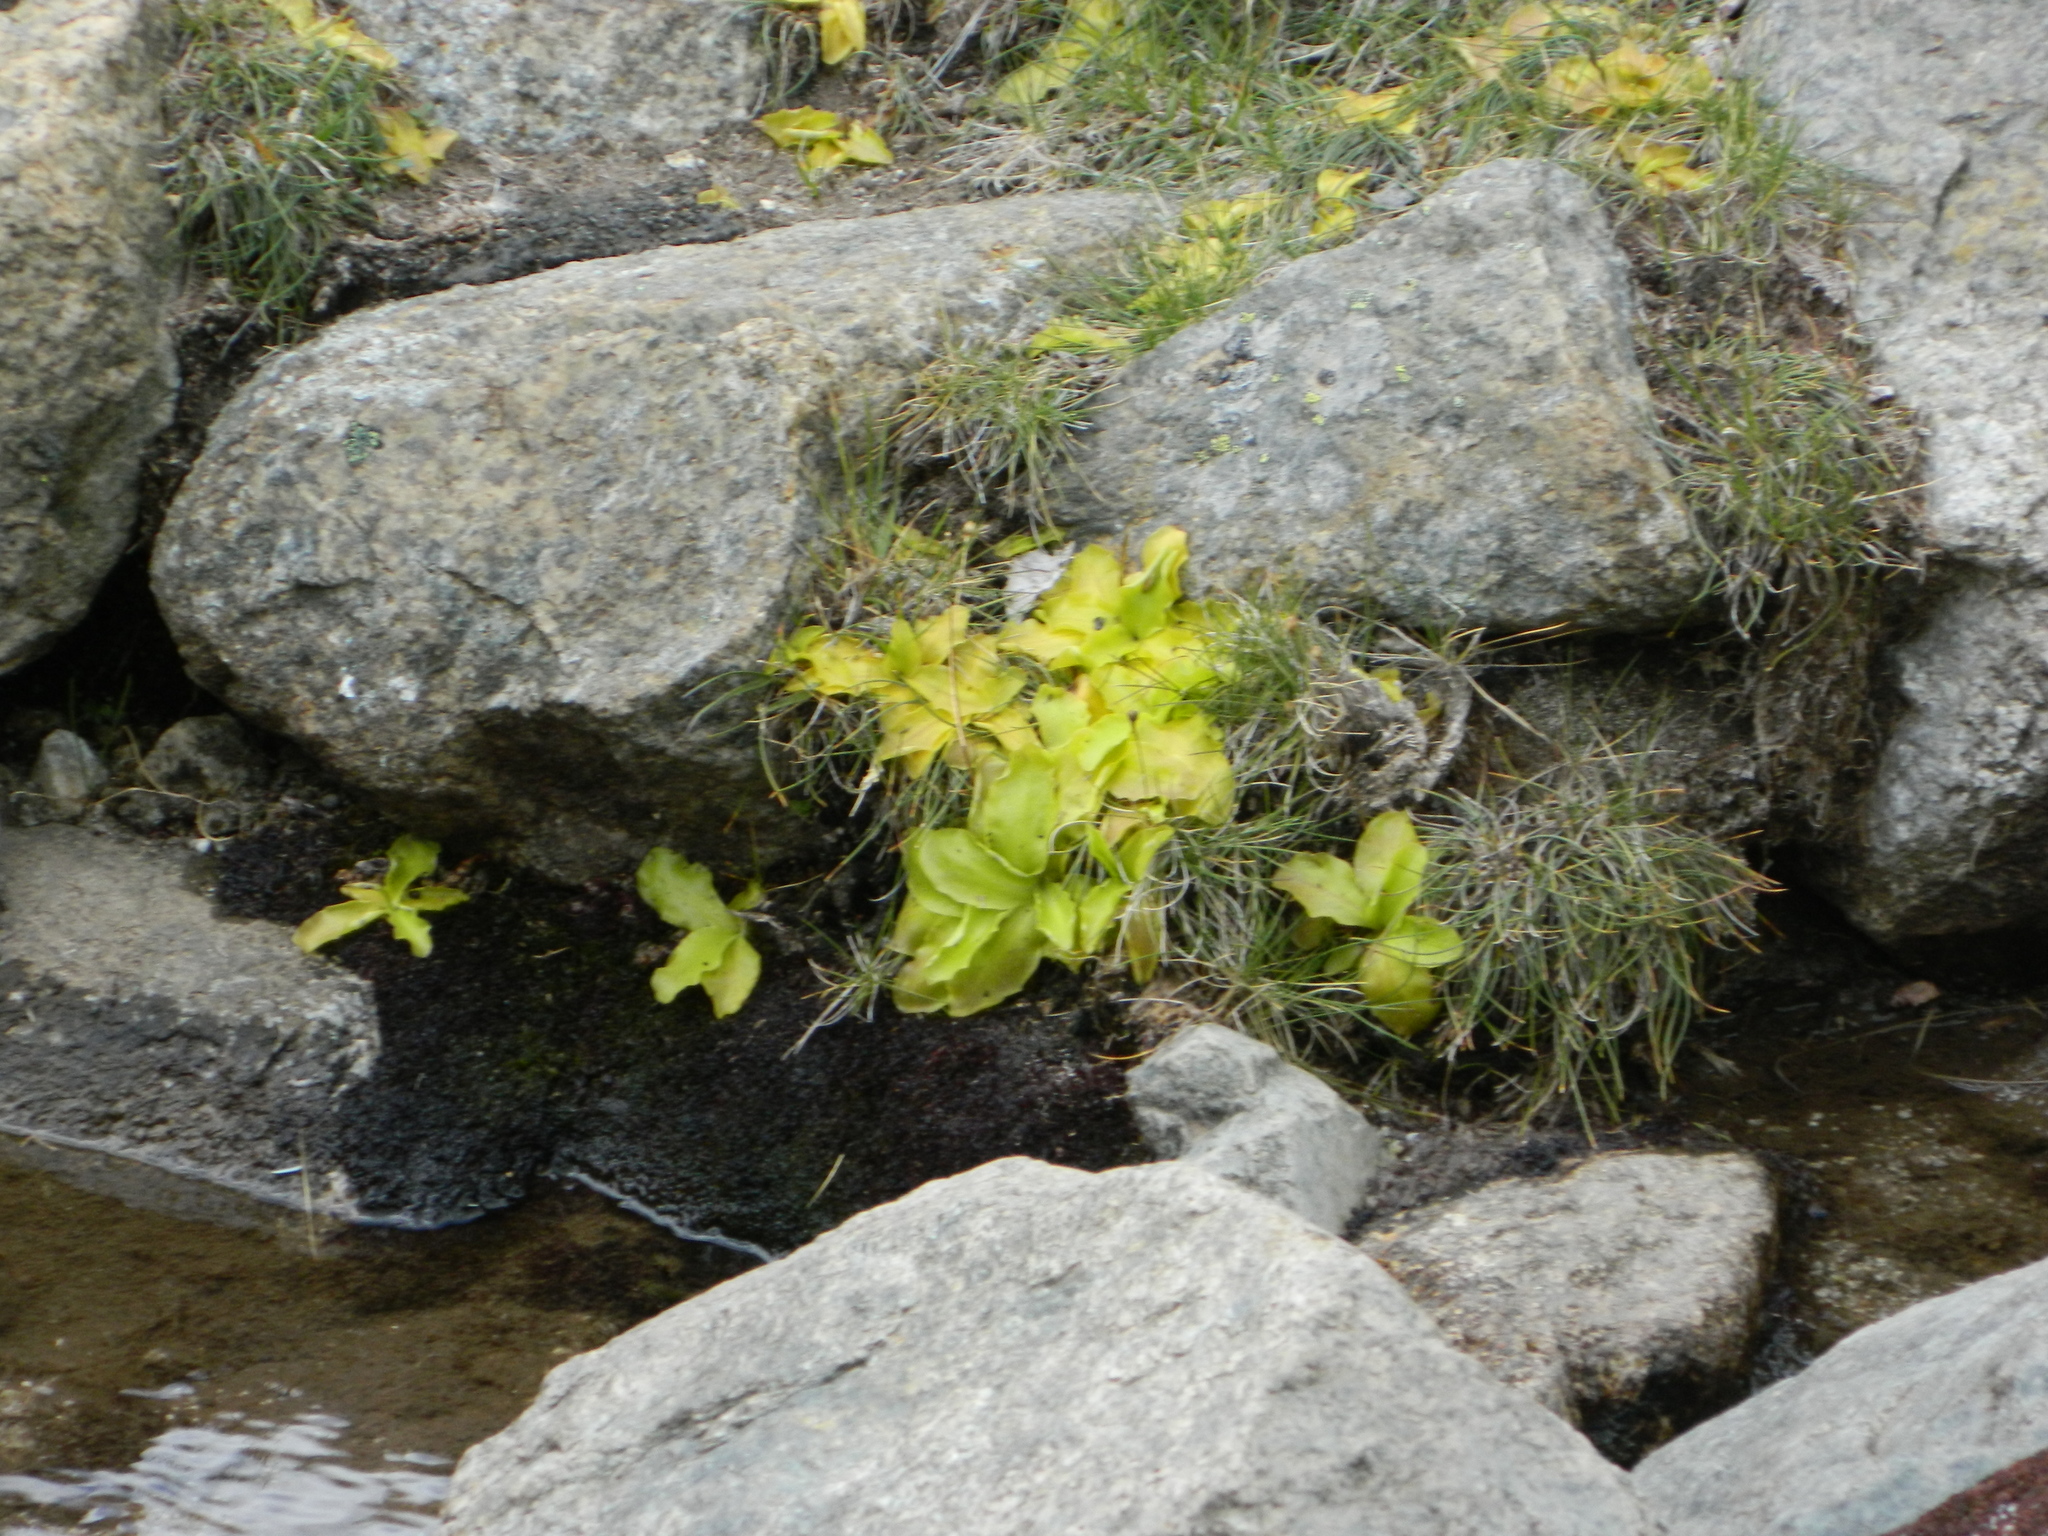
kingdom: Plantae
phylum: Tracheophyta
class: Magnoliopsida
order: Lamiales
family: Lentibulariaceae
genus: Pinguicula
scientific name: Pinguicula corsica
